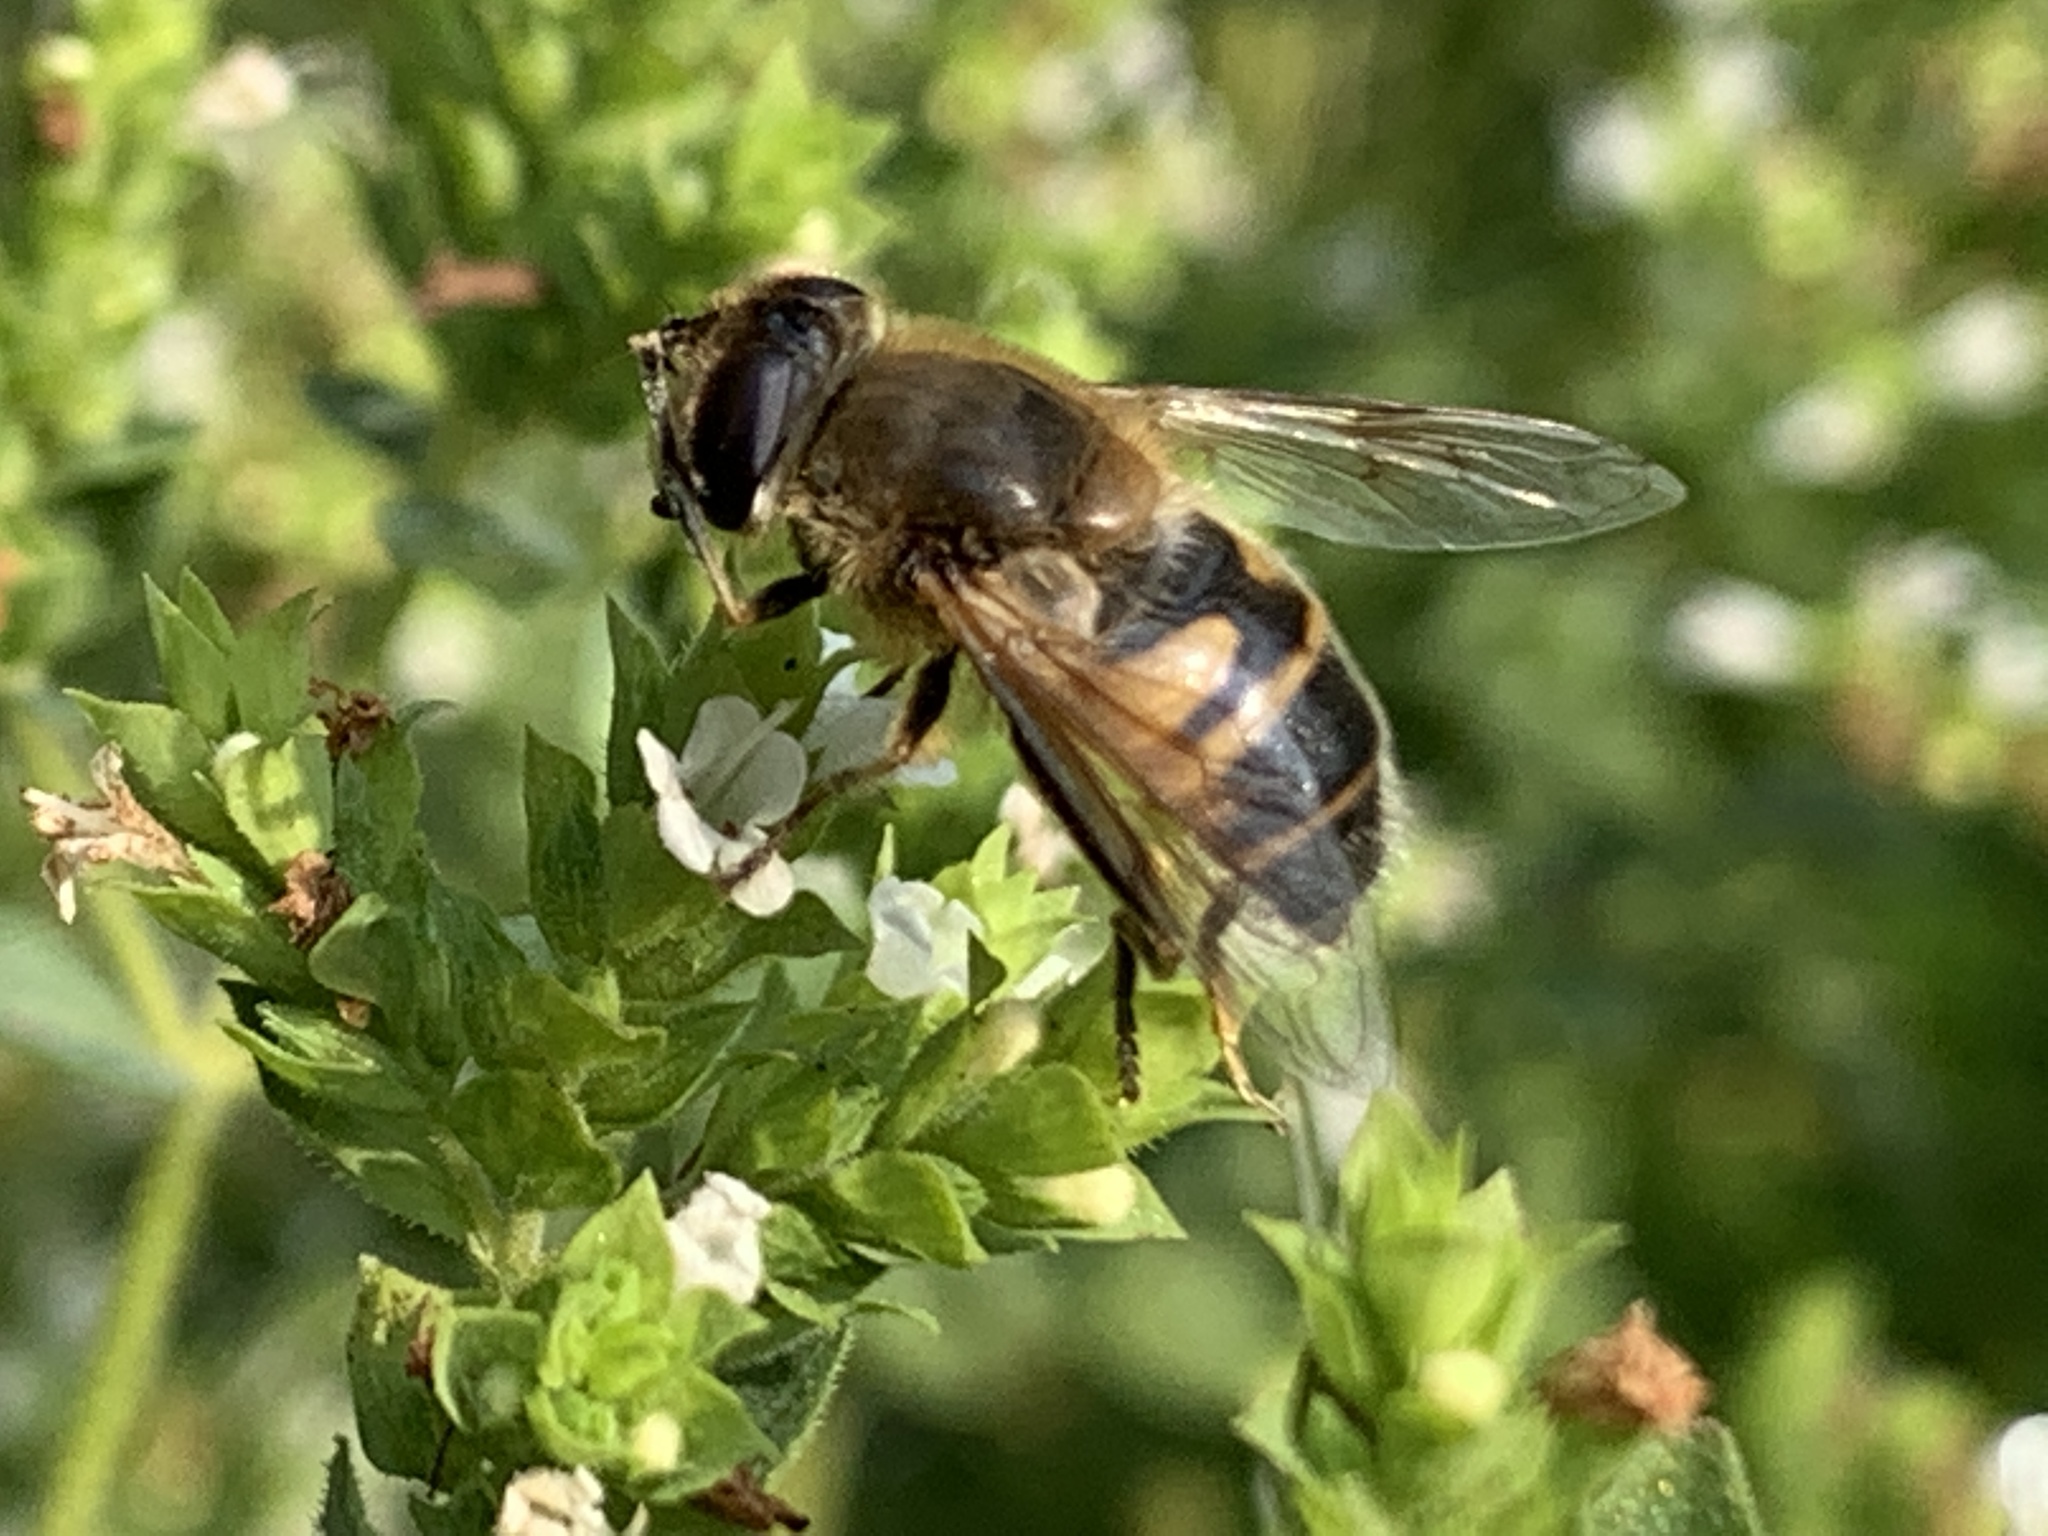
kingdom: Animalia
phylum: Arthropoda
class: Insecta
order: Diptera
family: Syrphidae
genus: Eristalis
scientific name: Eristalis tenax
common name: Drone fly
